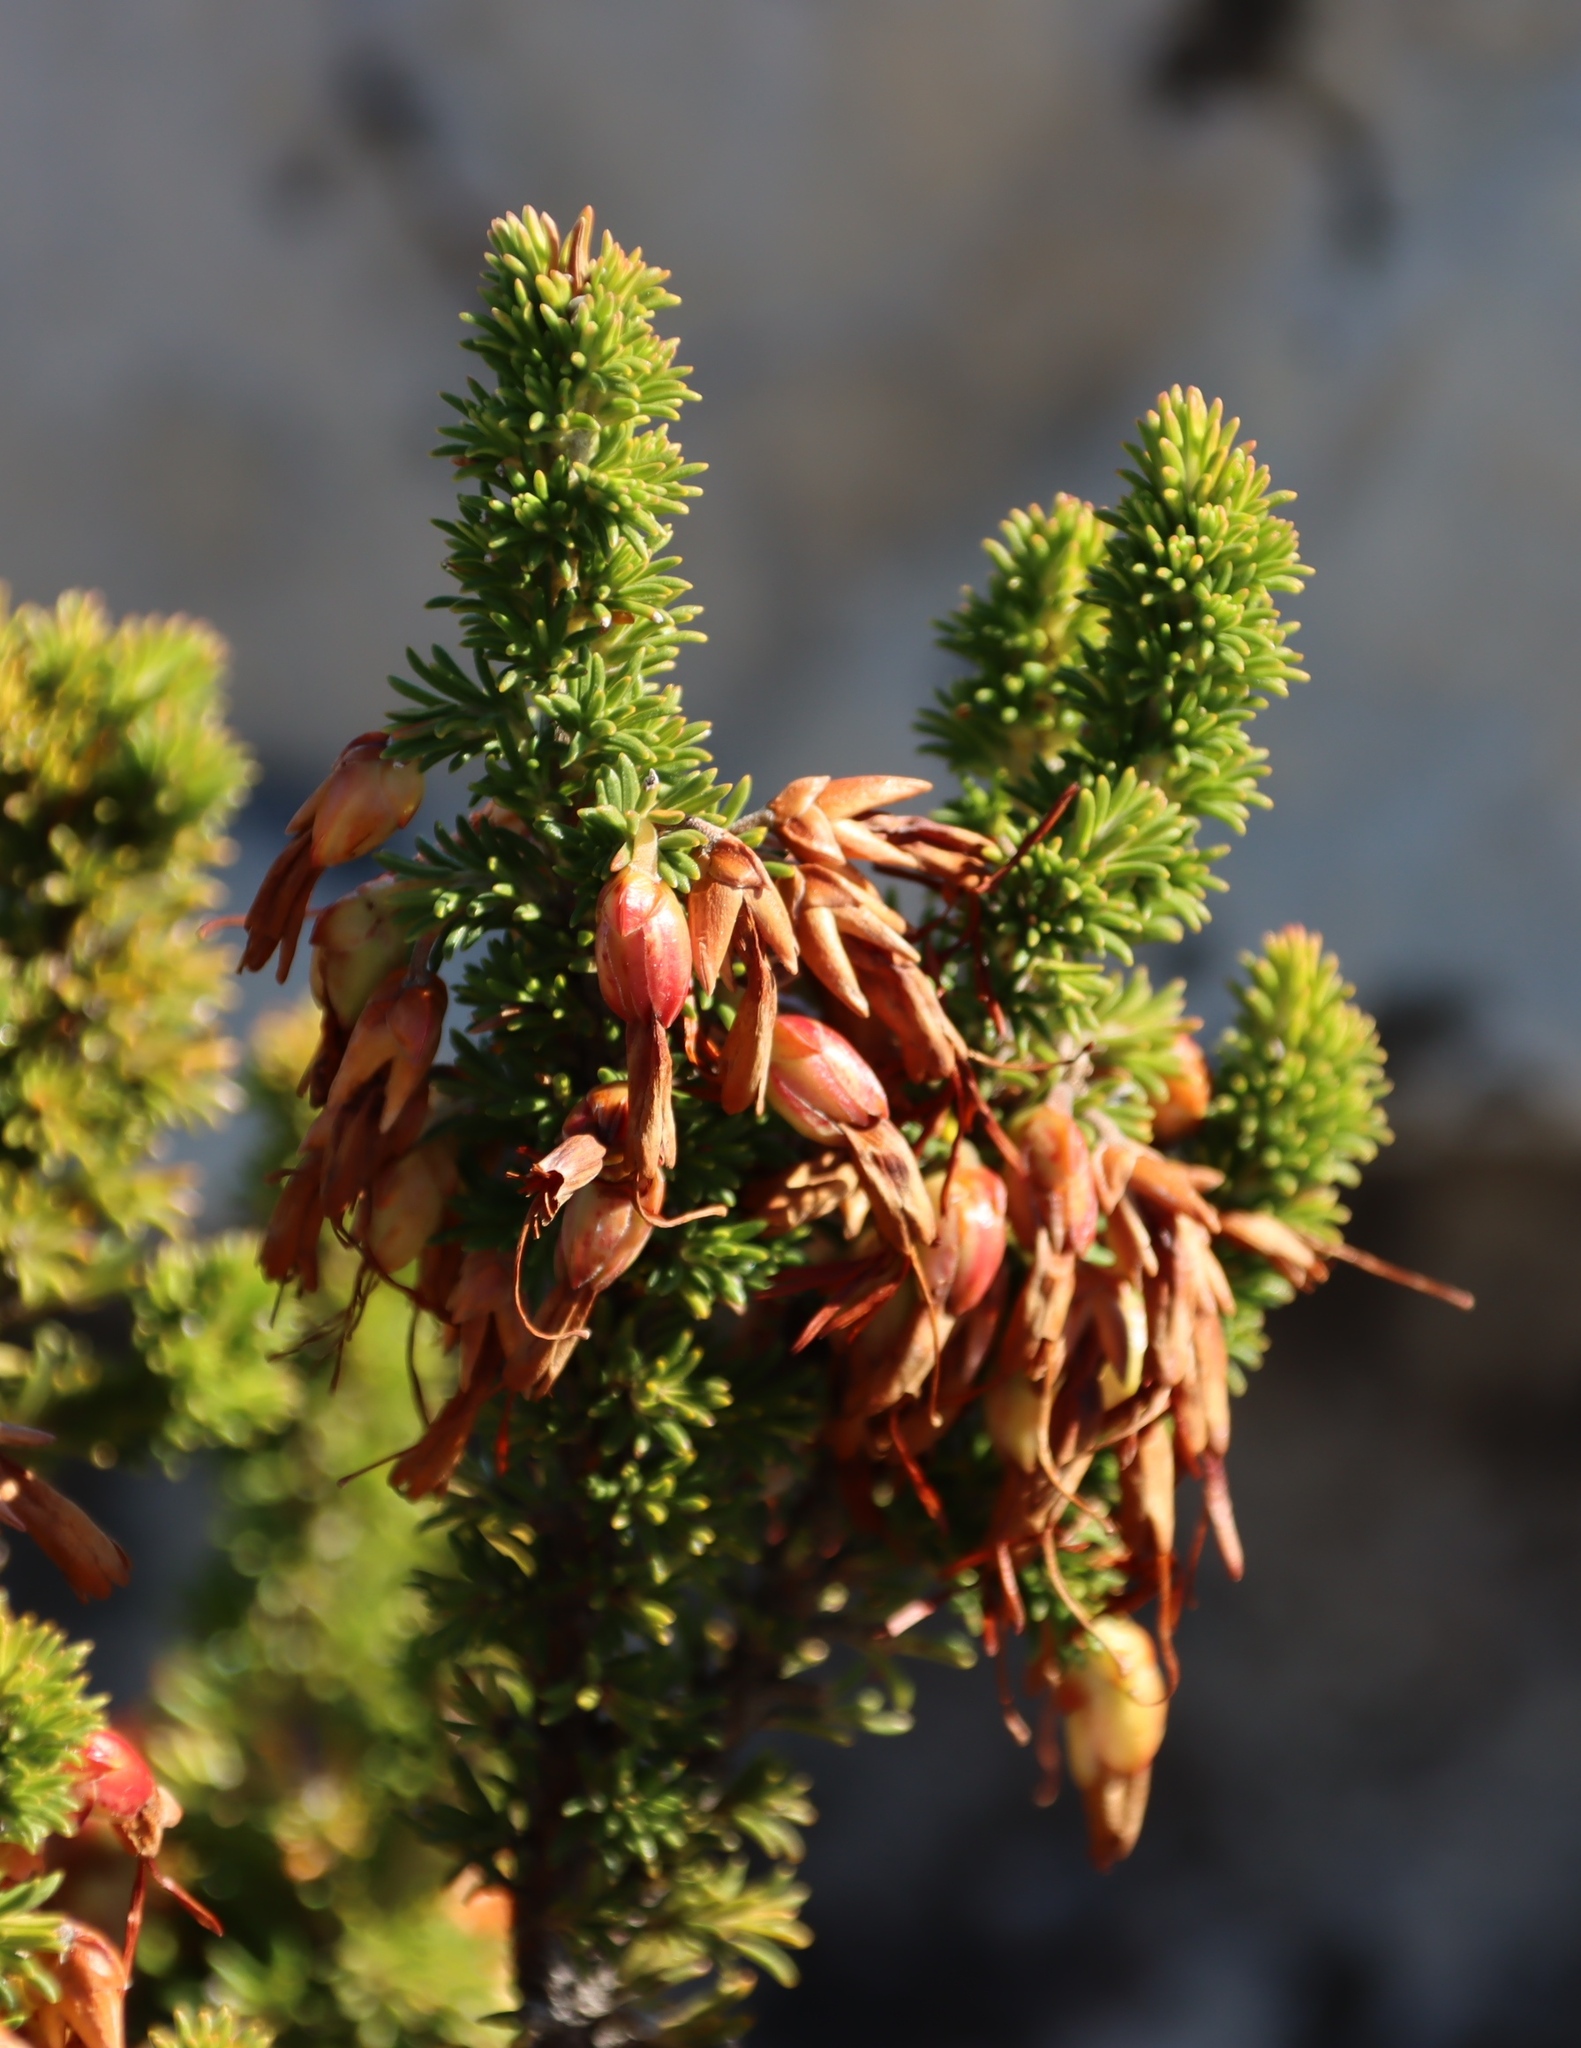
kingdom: Plantae
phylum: Tracheophyta
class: Magnoliopsida
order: Ericales
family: Ericaceae
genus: Erica
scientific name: Erica coccinea
